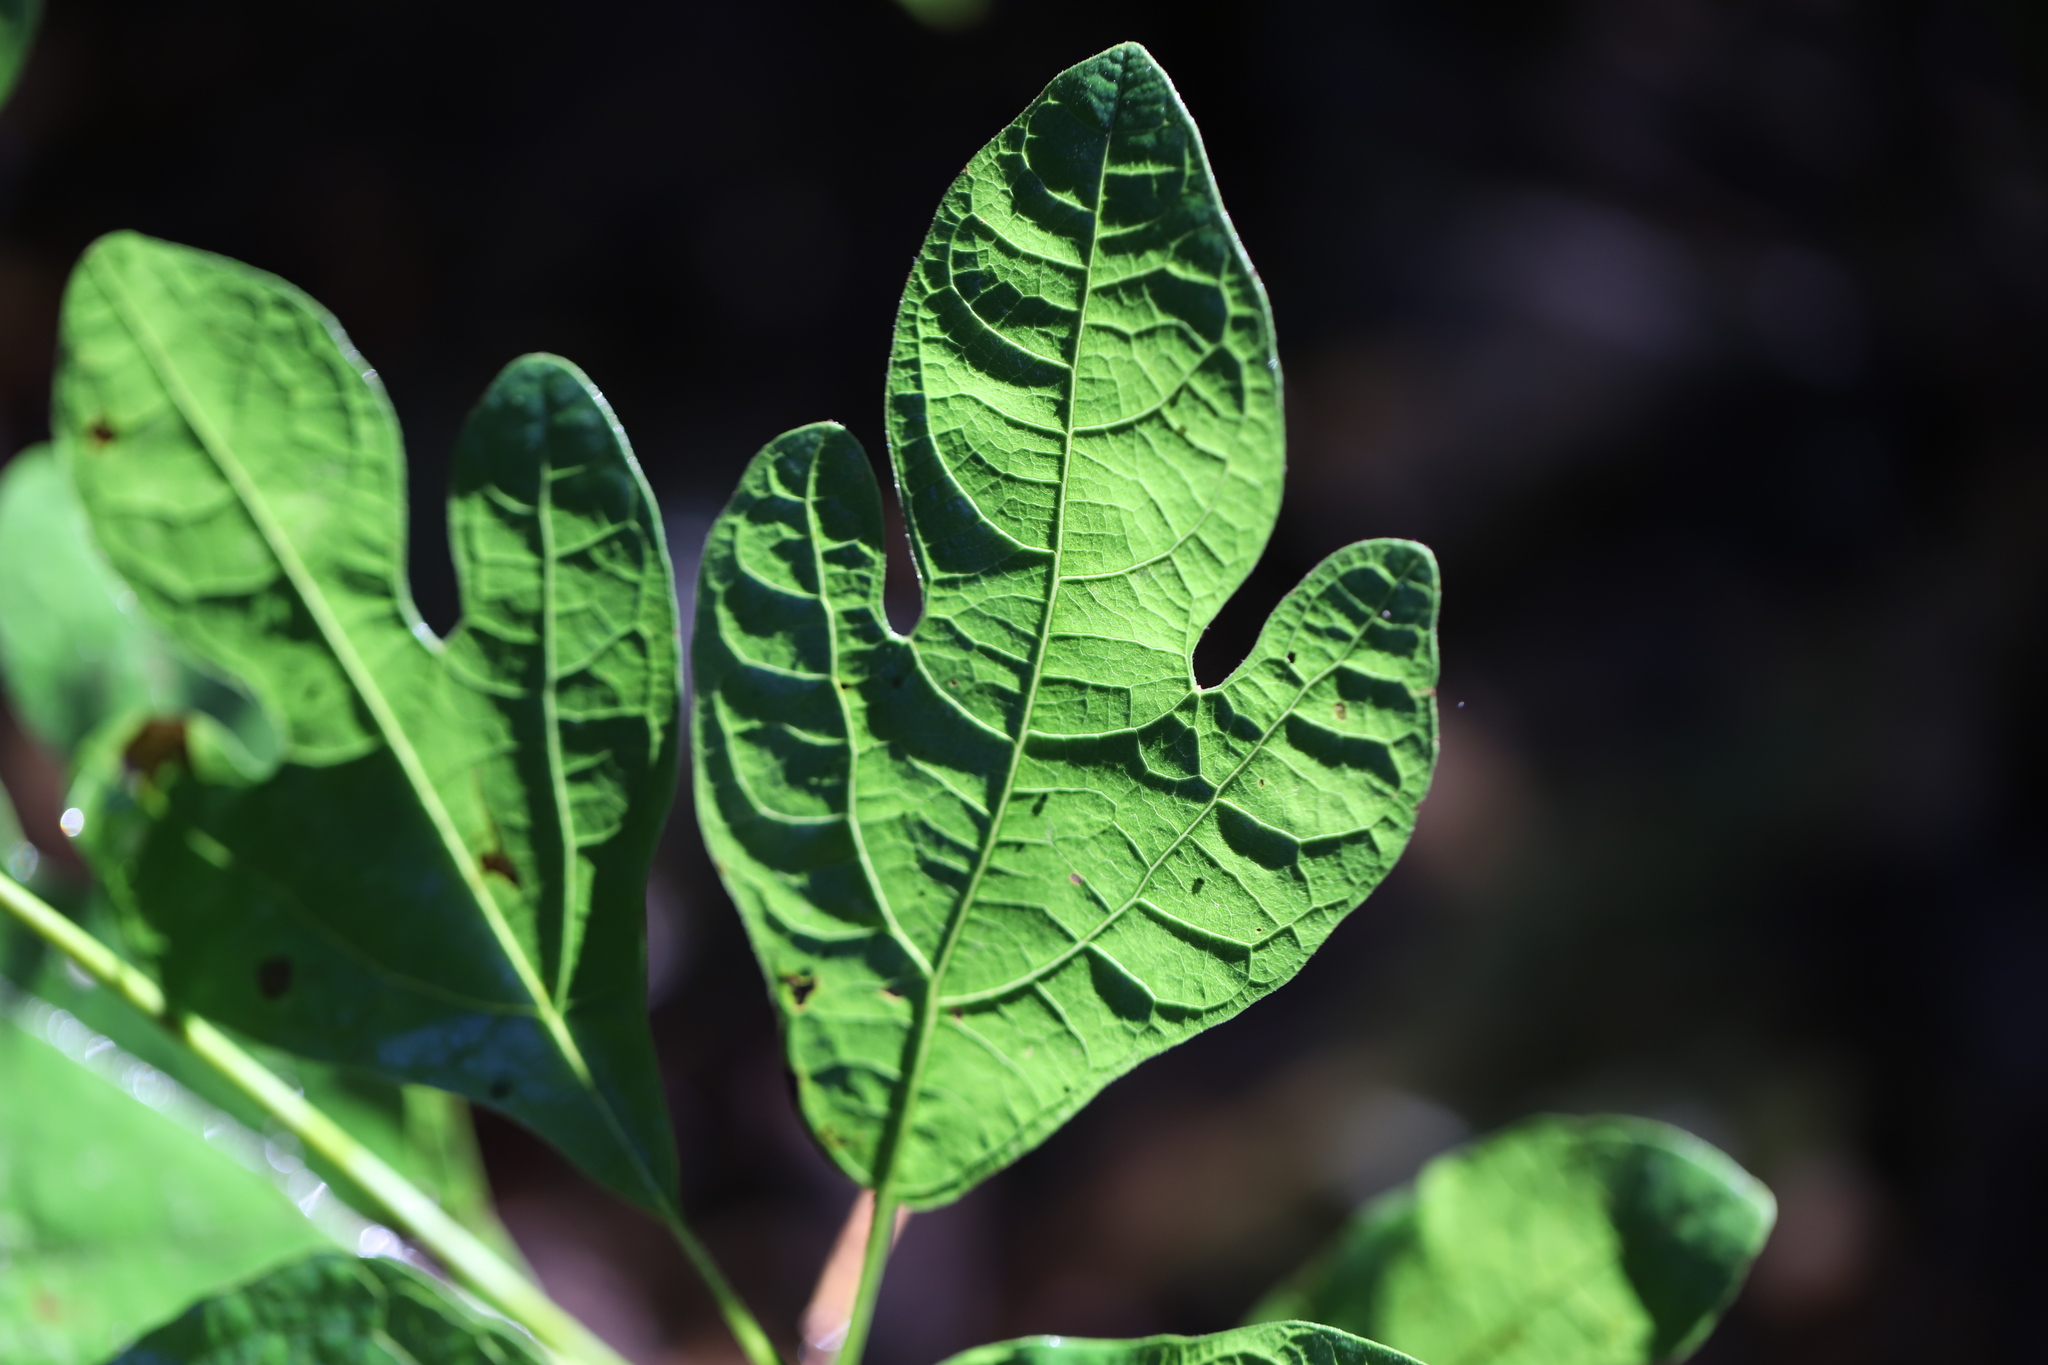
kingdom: Plantae
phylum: Tracheophyta
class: Magnoliopsida
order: Laurales
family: Lauraceae
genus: Sassafras
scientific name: Sassafras albidum
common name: Sassafras
